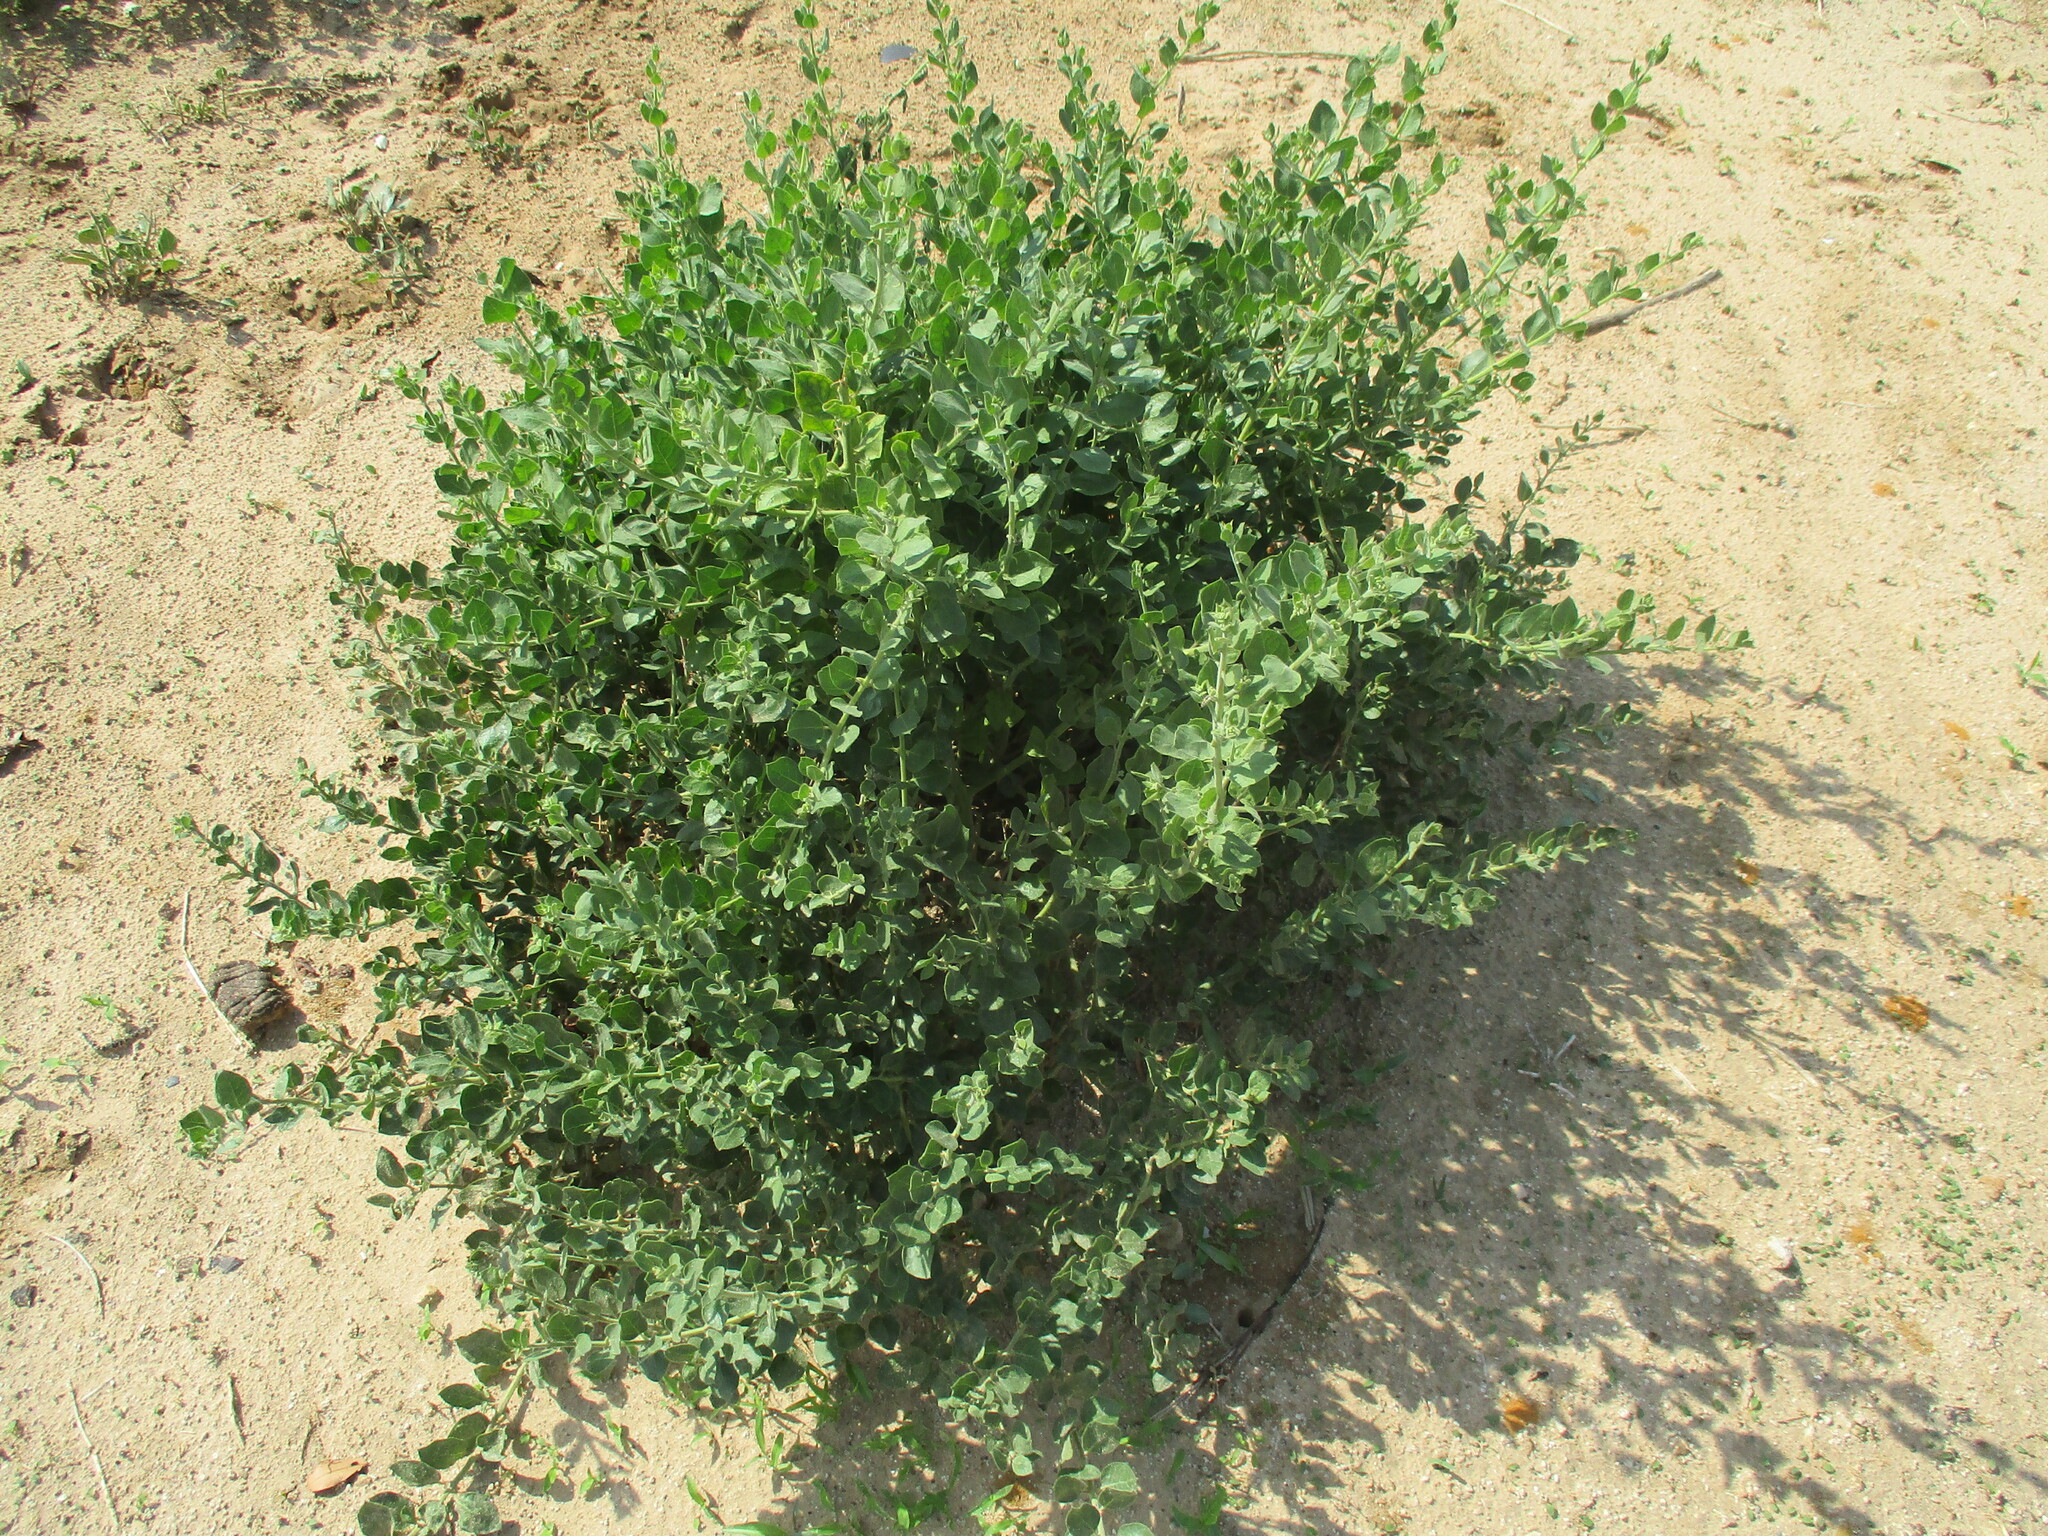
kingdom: Plantae
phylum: Tracheophyta
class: Magnoliopsida
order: Lamiales
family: Lamiaceae
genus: Kalaharia
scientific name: Kalaharia uncinata
